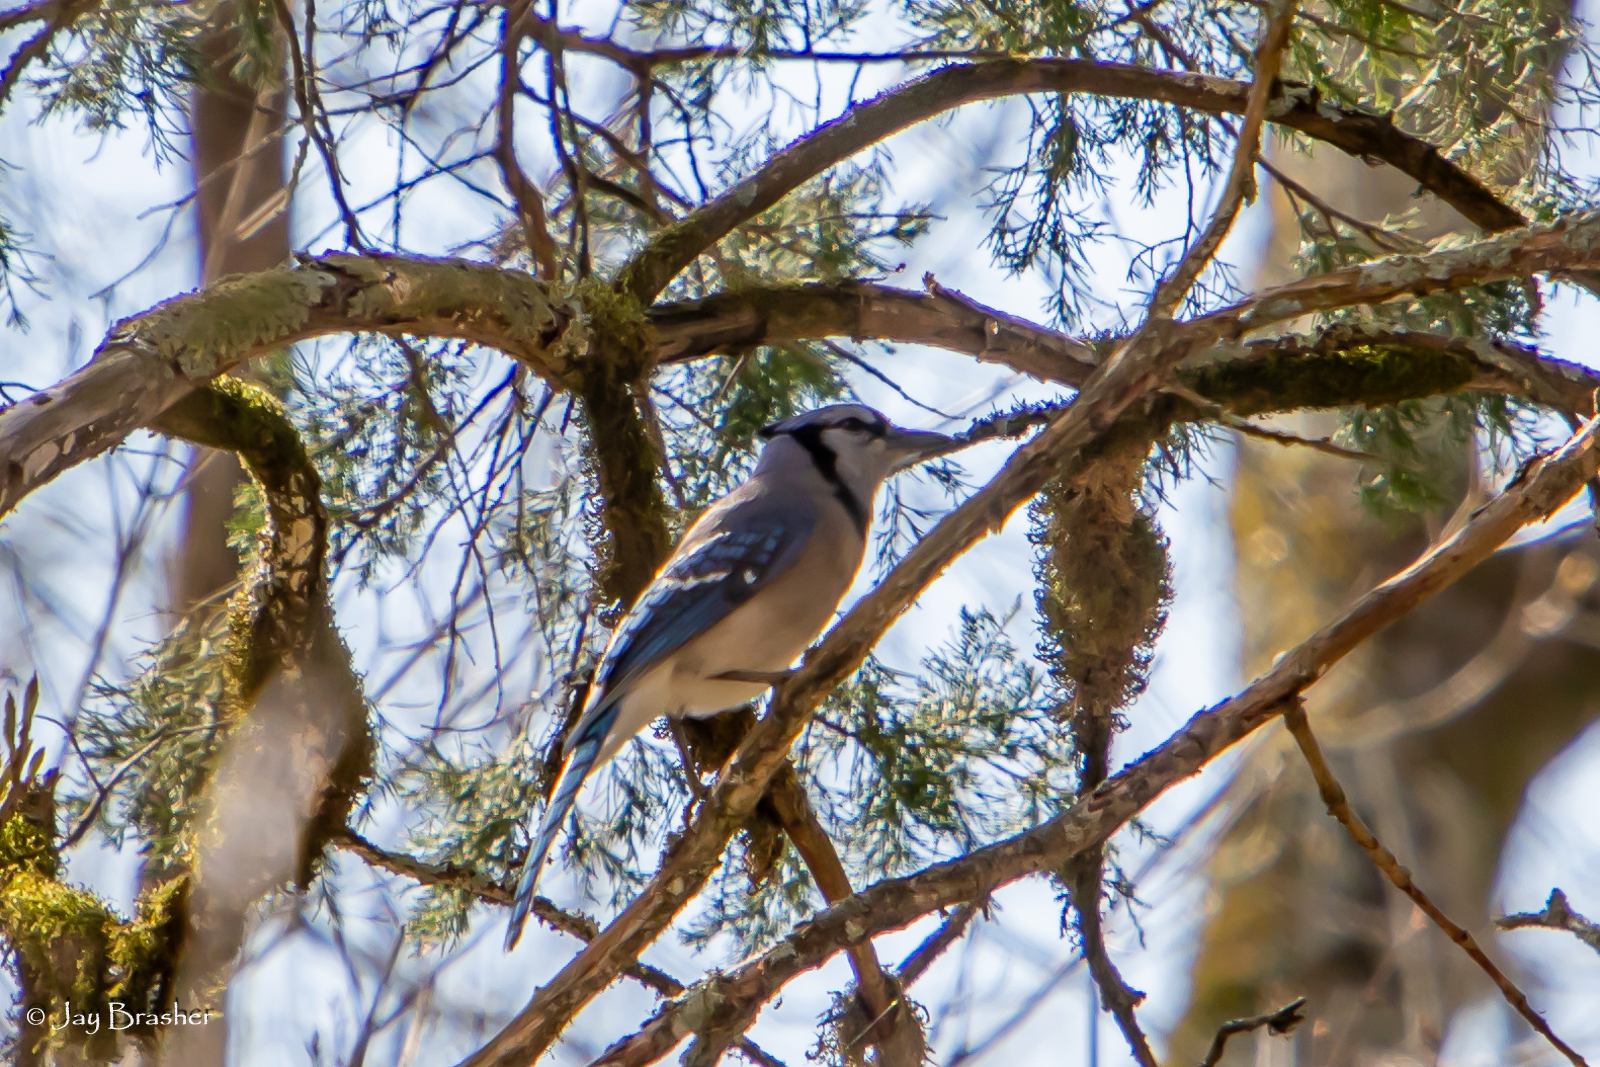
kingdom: Animalia
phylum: Chordata
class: Aves
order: Passeriformes
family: Corvidae
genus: Cyanocitta
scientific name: Cyanocitta cristata
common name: Blue jay
